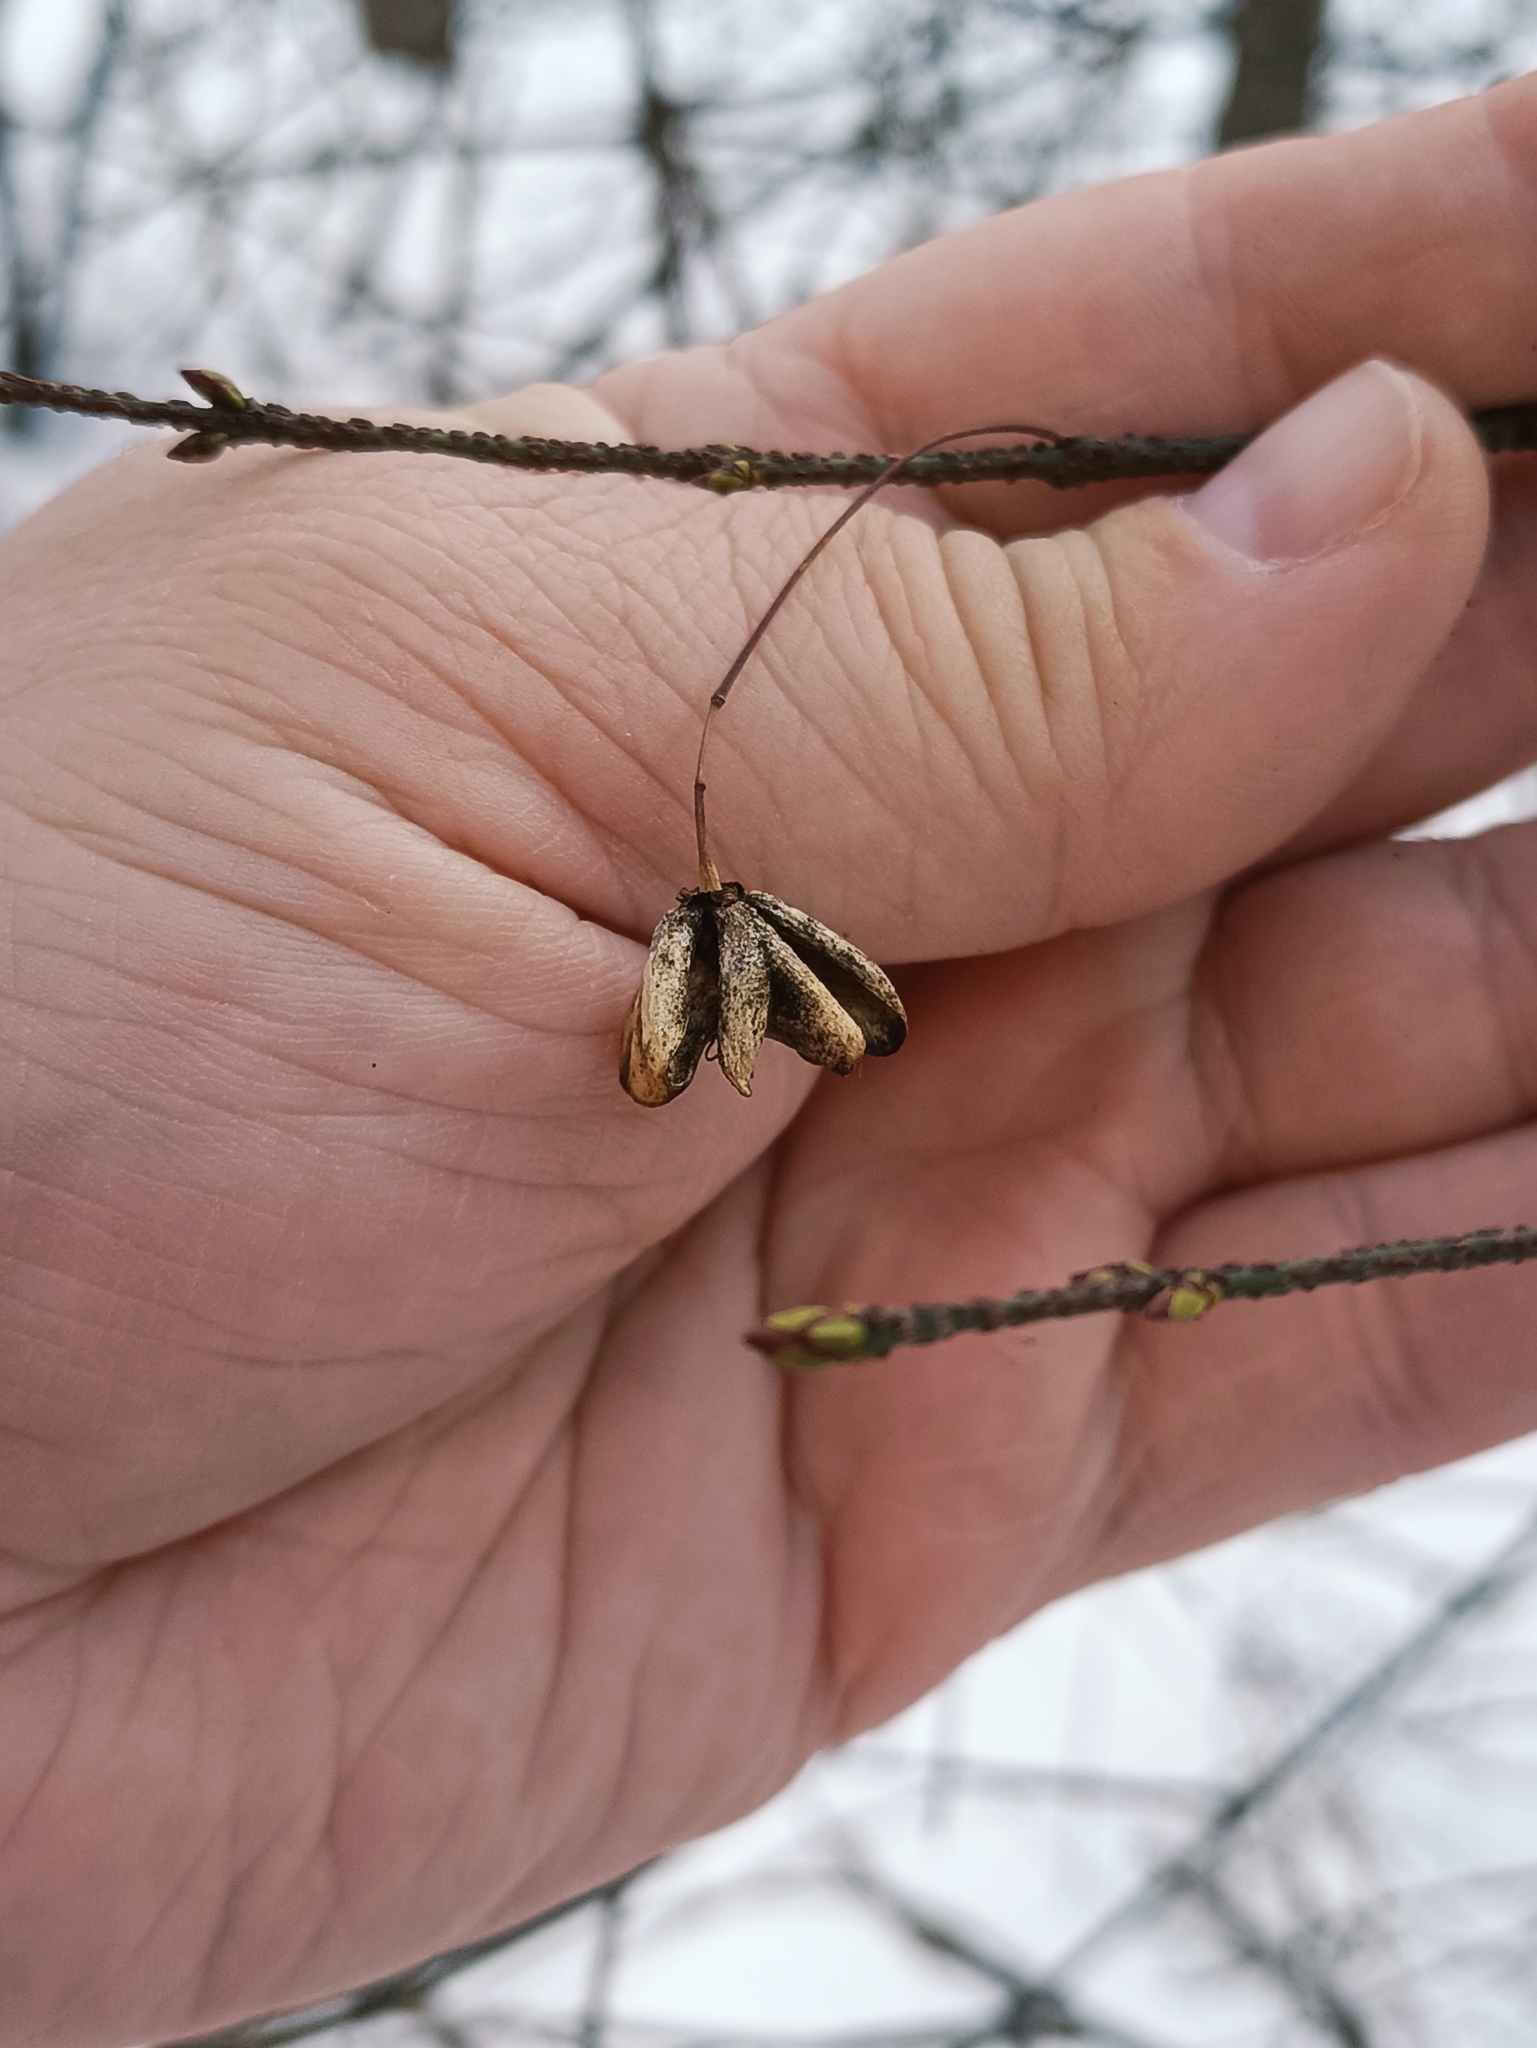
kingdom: Plantae
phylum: Tracheophyta
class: Magnoliopsida
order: Celastrales
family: Celastraceae
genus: Euonymus
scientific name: Euonymus verrucosus
